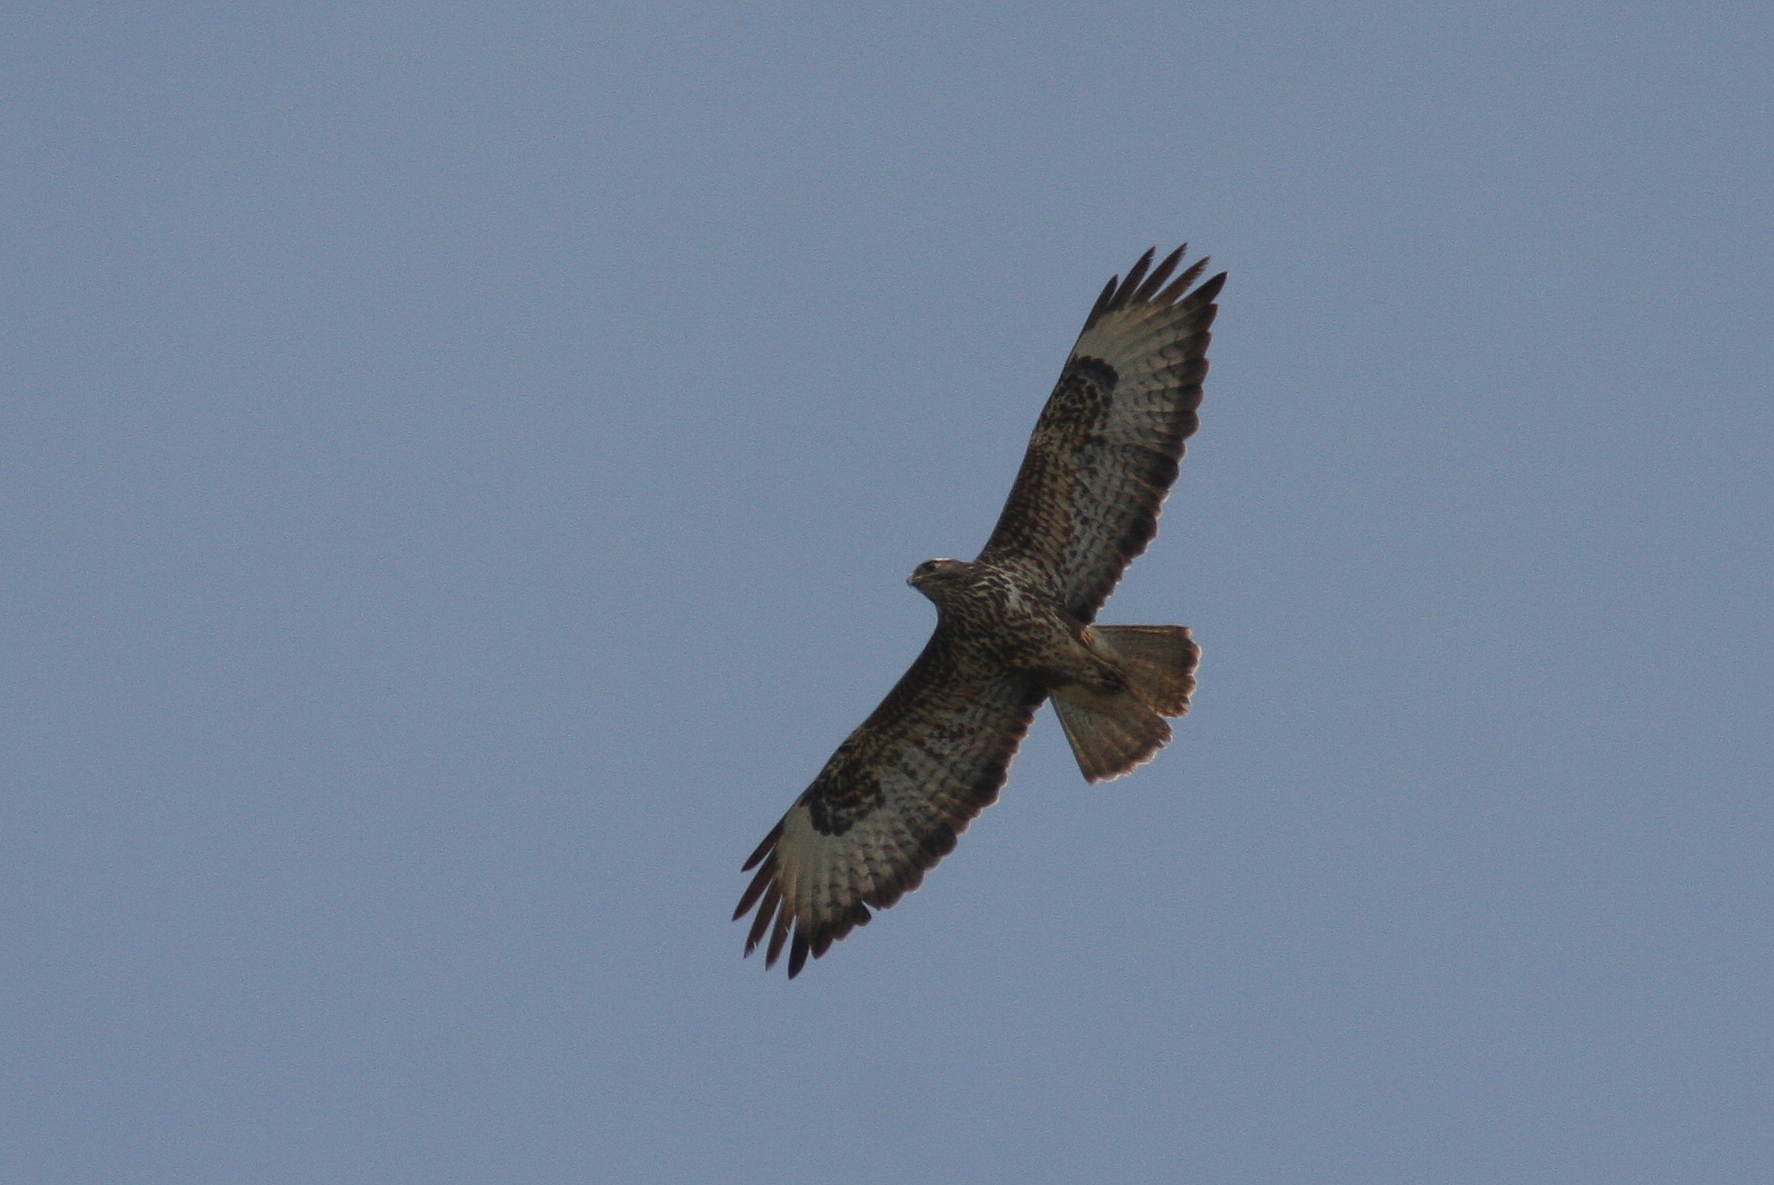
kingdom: Animalia
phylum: Chordata
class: Aves
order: Accipitriformes
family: Accipitridae
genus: Buteo
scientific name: Buteo buteo
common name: Common buzzard
